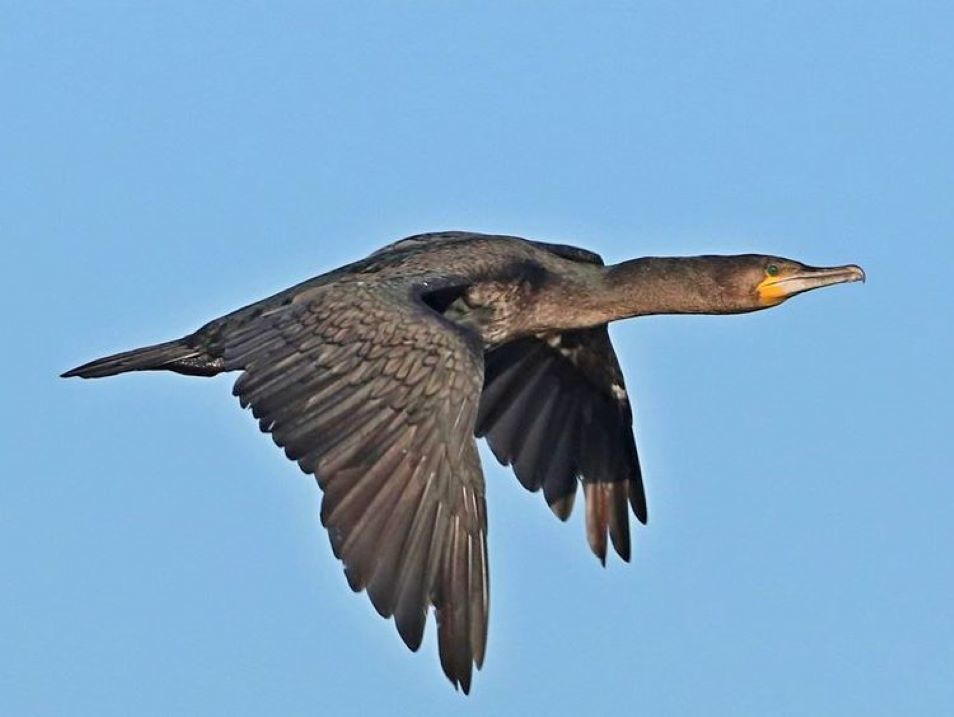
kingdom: Animalia
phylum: Chordata
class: Aves
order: Suliformes
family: Phalacrocoracidae
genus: Phalacrocorax
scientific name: Phalacrocorax capensis
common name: Cape cormorant
